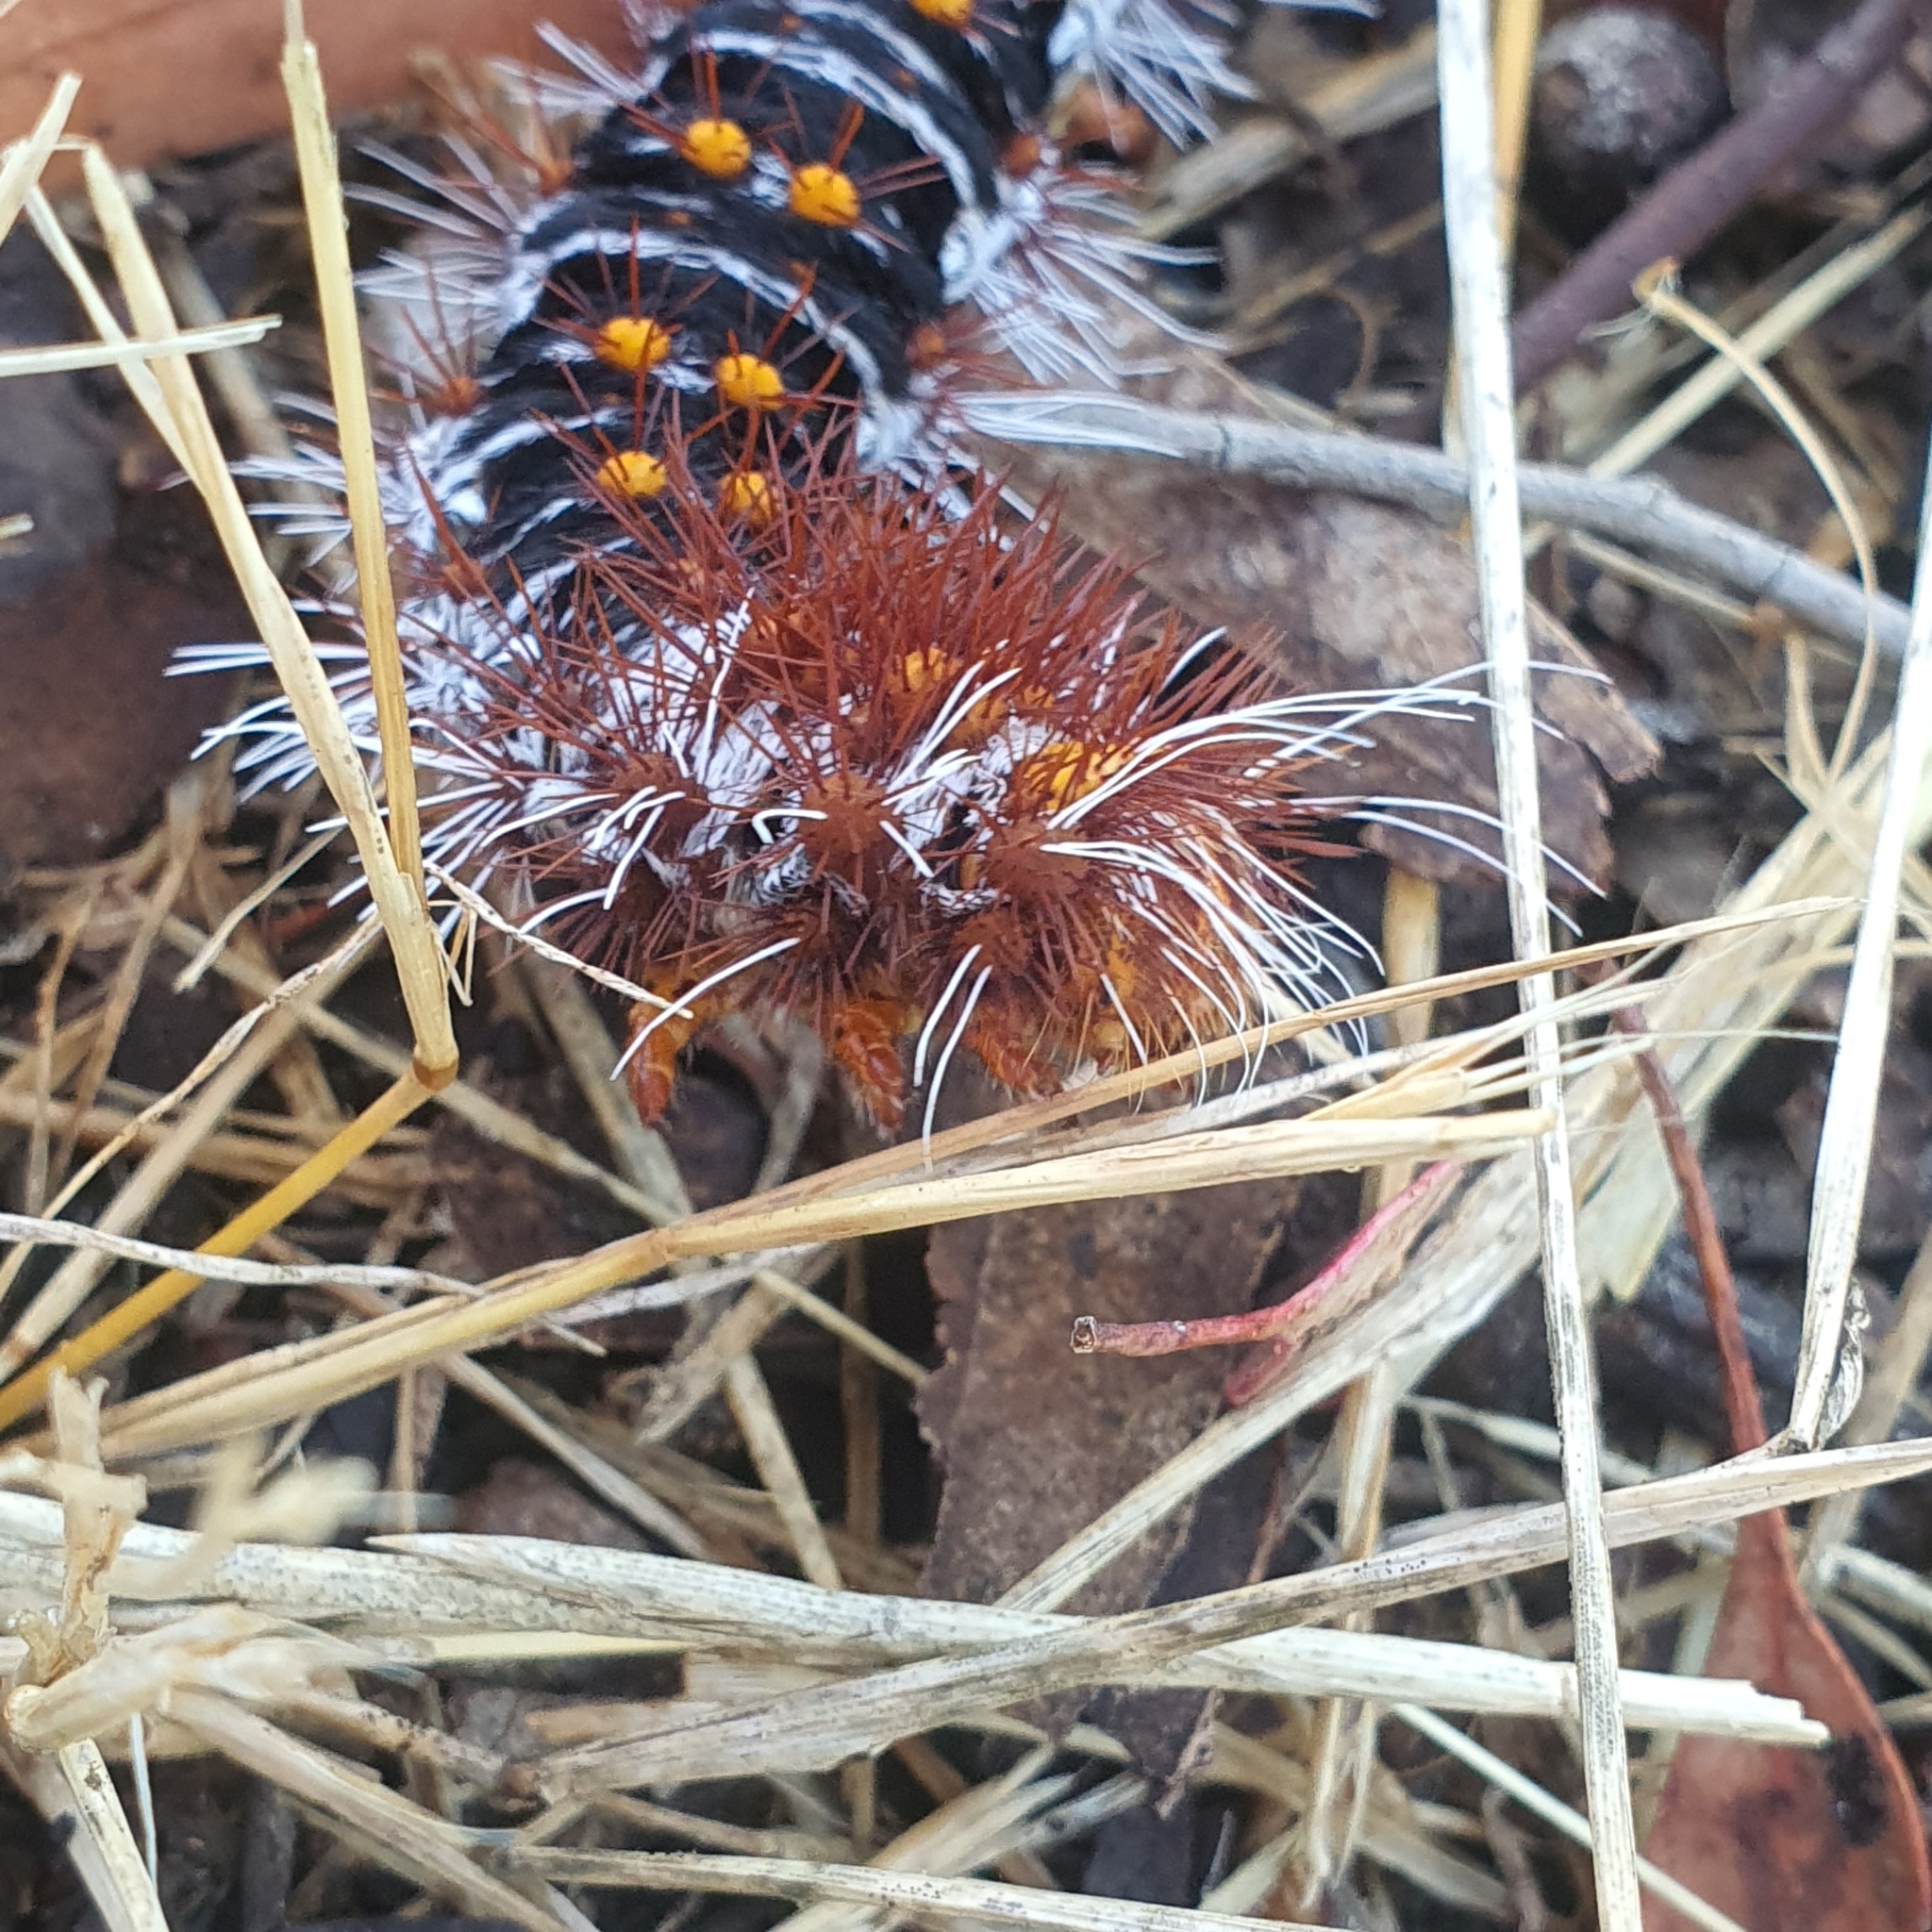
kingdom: Animalia
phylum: Arthropoda
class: Insecta
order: Lepidoptera
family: Anthelidae
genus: Chelepteryx
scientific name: Chelepteryx collesi
